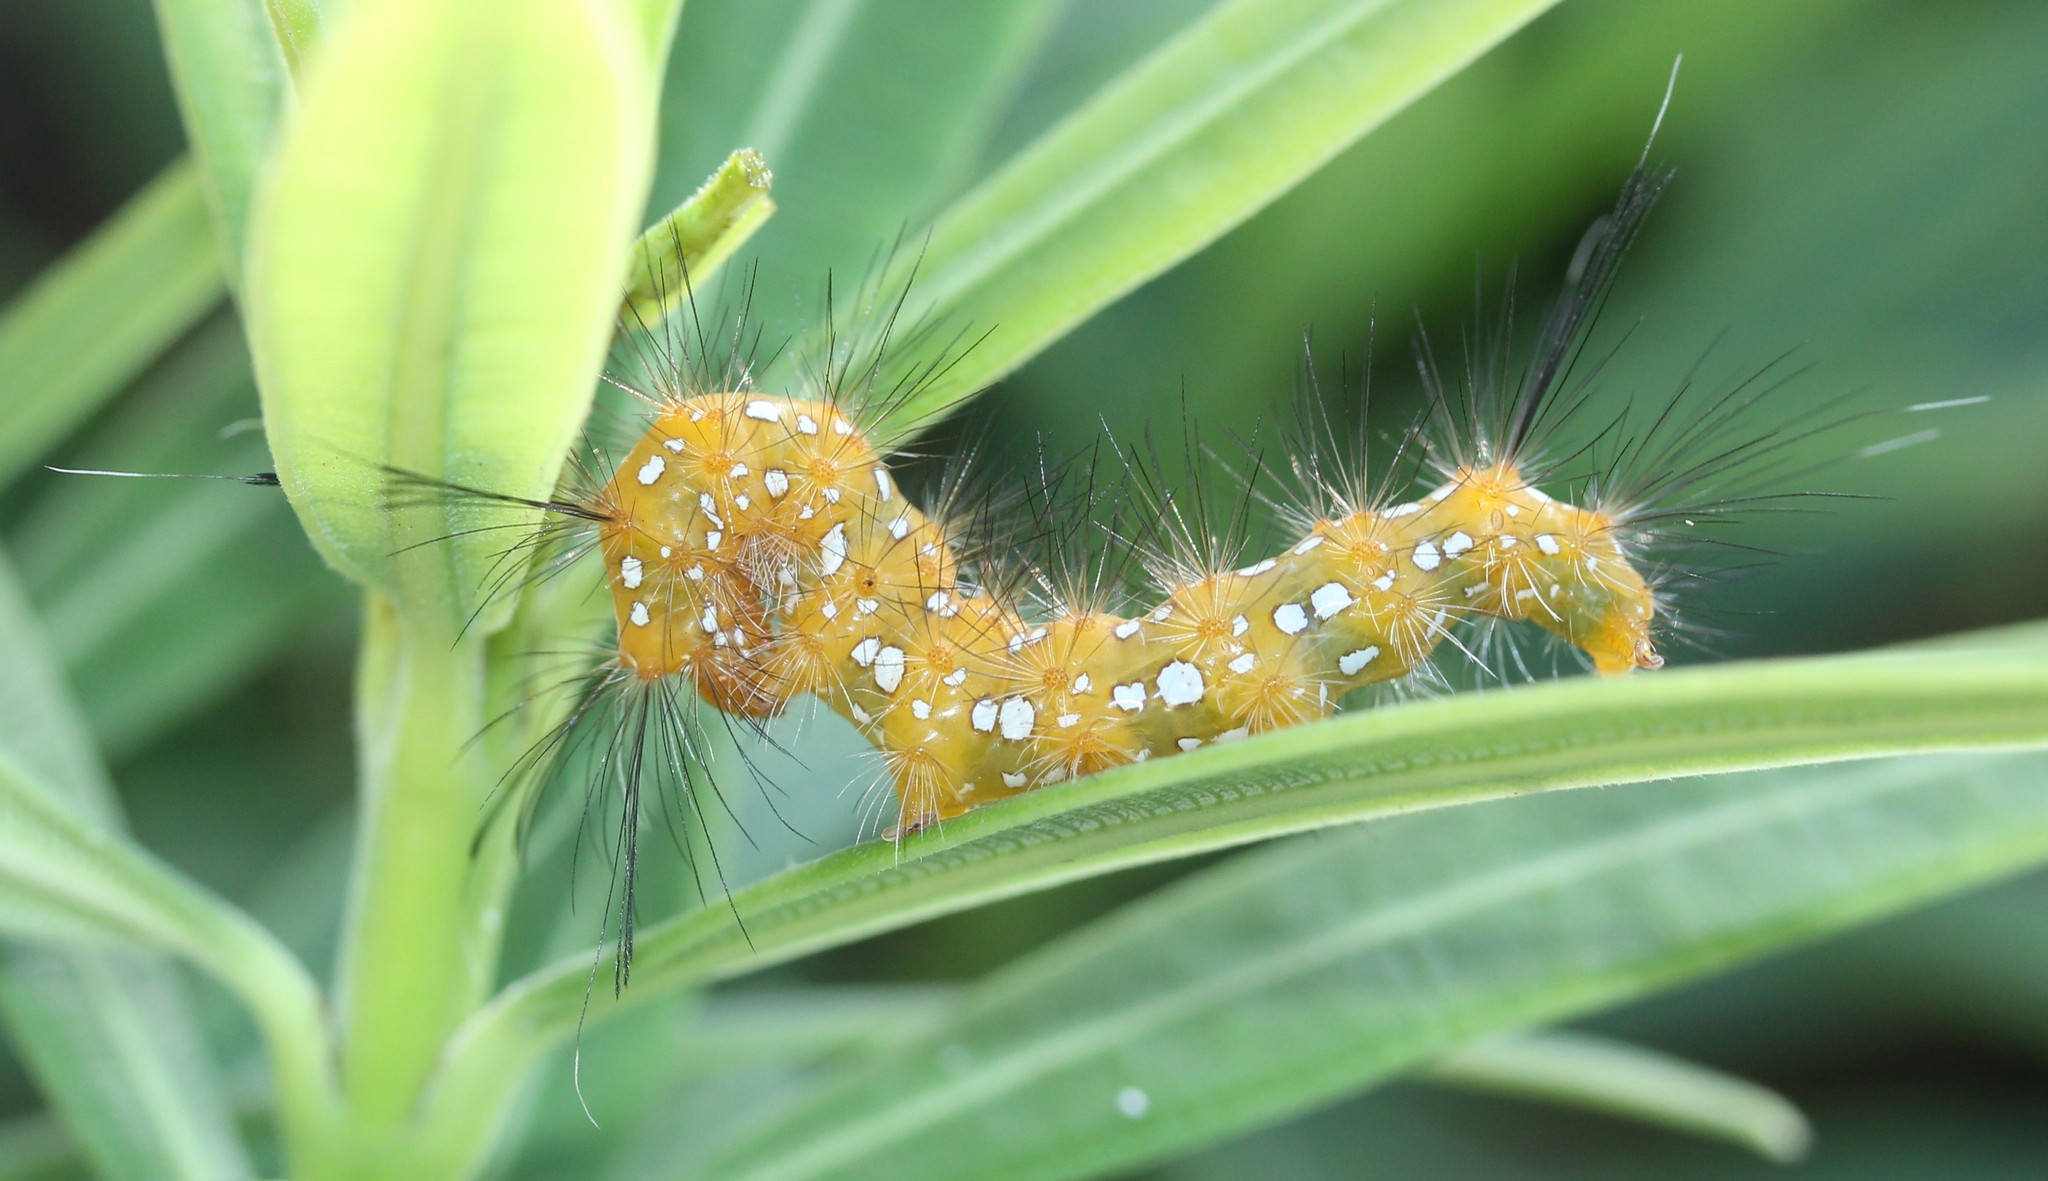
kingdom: Animalia
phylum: Arthropoda
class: Insecta
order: Lepidoptera
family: Erebidae
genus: Empyreuma
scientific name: Empyreuma pugione
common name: Spotted oleander caterpillar moth
